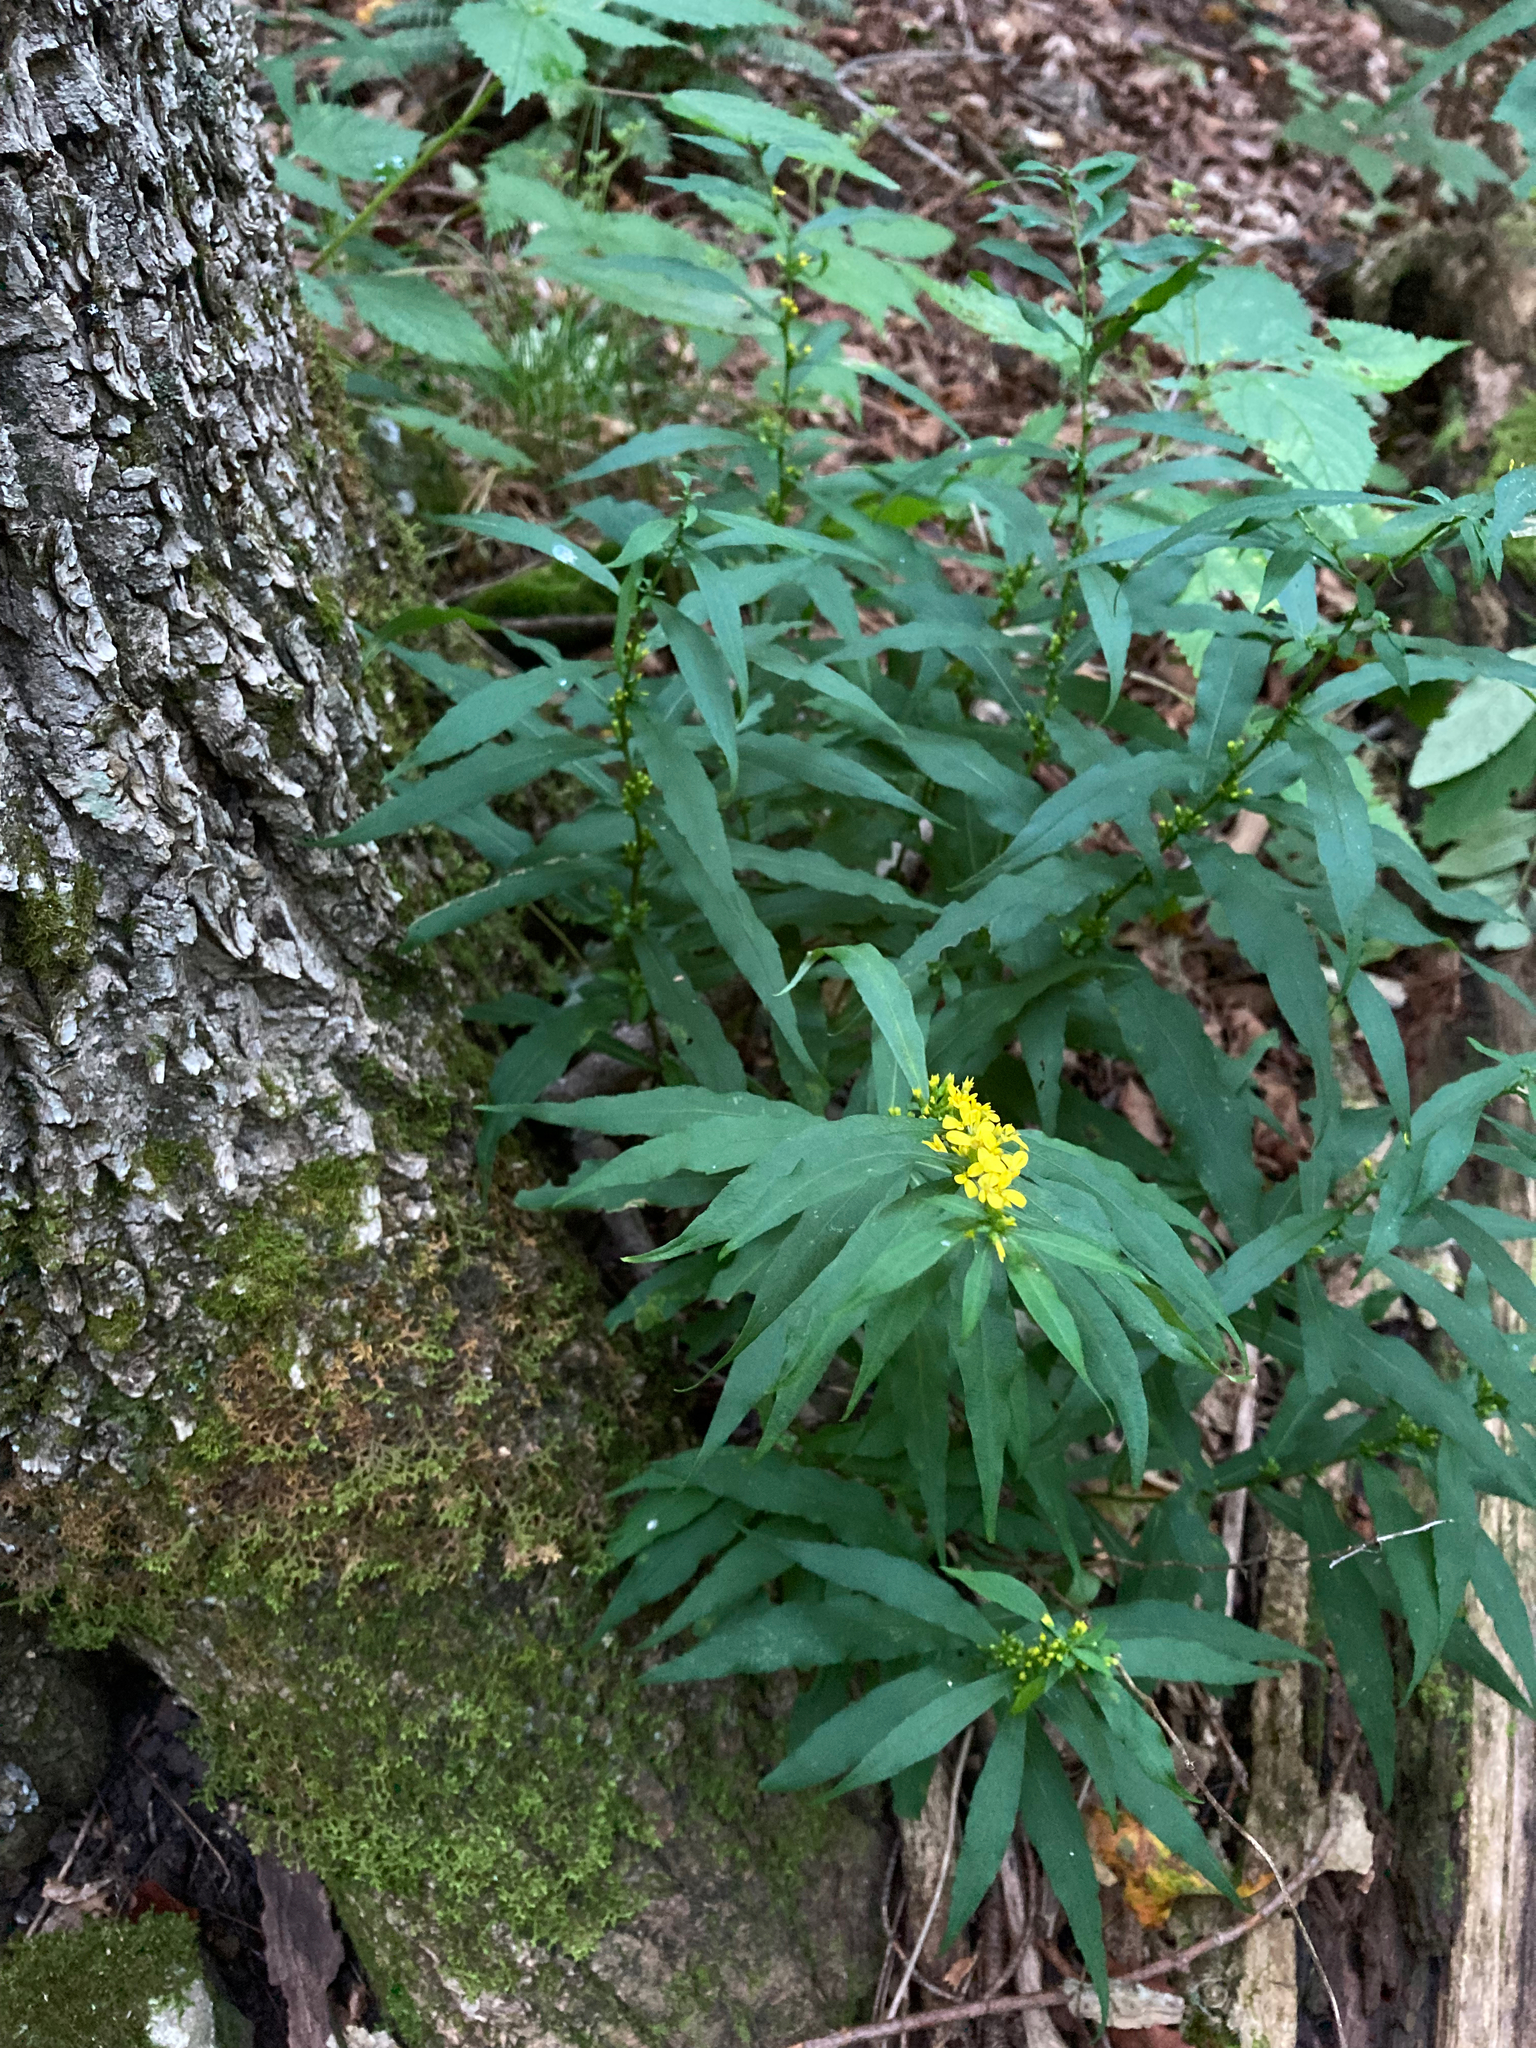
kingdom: Plantae
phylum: Tracheophyta
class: Magnoliopsida
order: Asterales
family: Asteraceae
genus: Solidago
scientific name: Solidago caesia
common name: Woodland goldenrod
